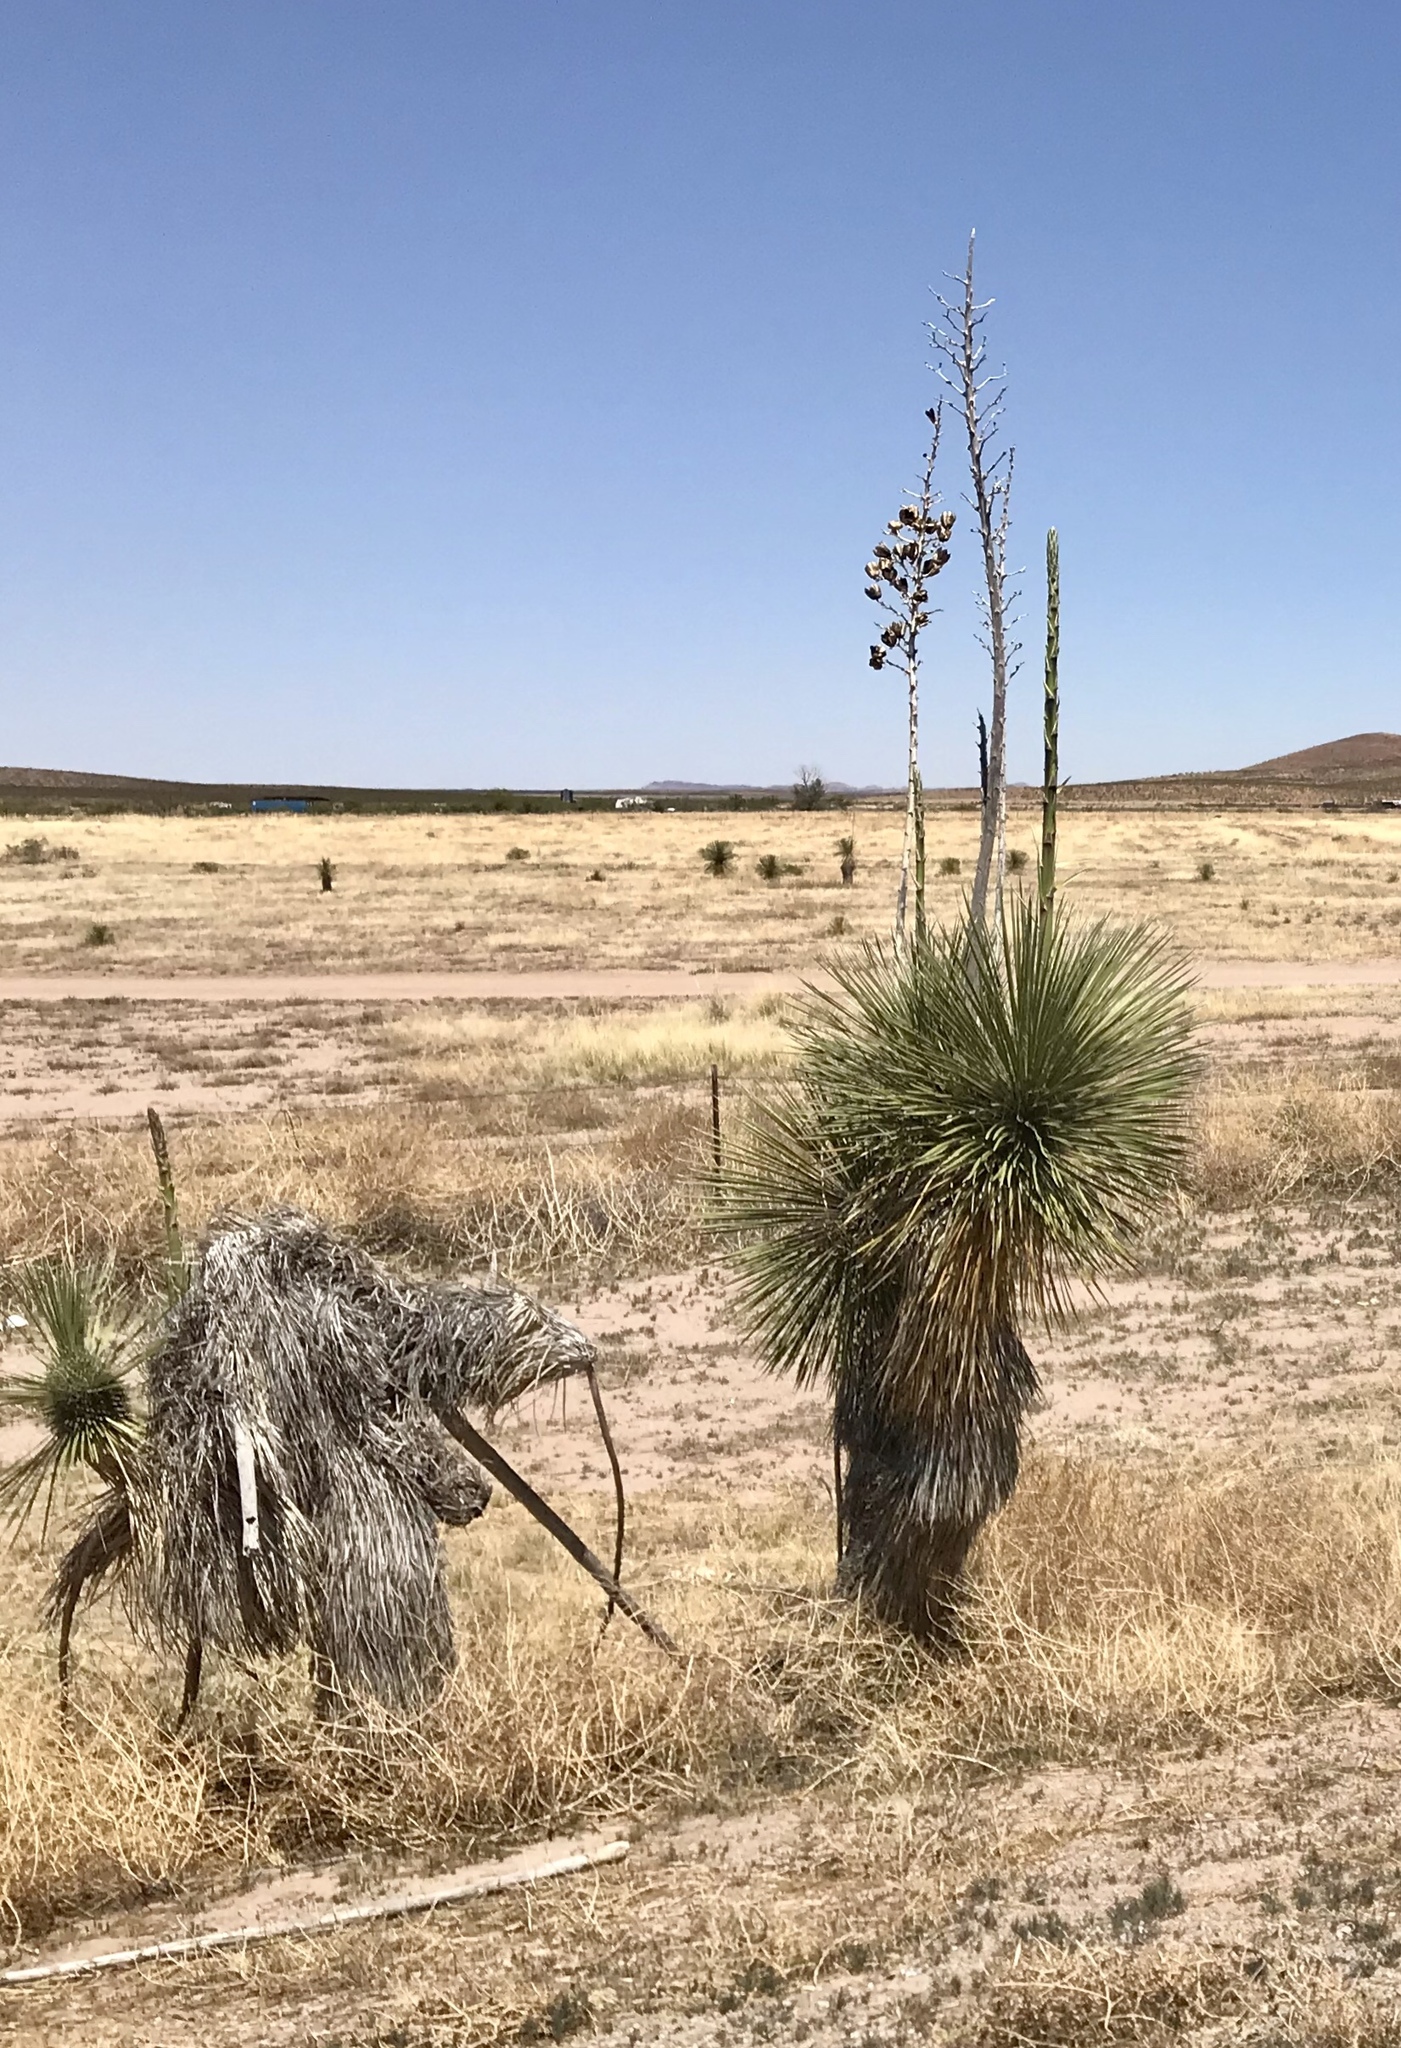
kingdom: Plantae
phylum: Tracheophyta
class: Liliopsida
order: Asparagales
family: Asparagaceae
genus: Yucca
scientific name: Yucca elata
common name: Palmella
